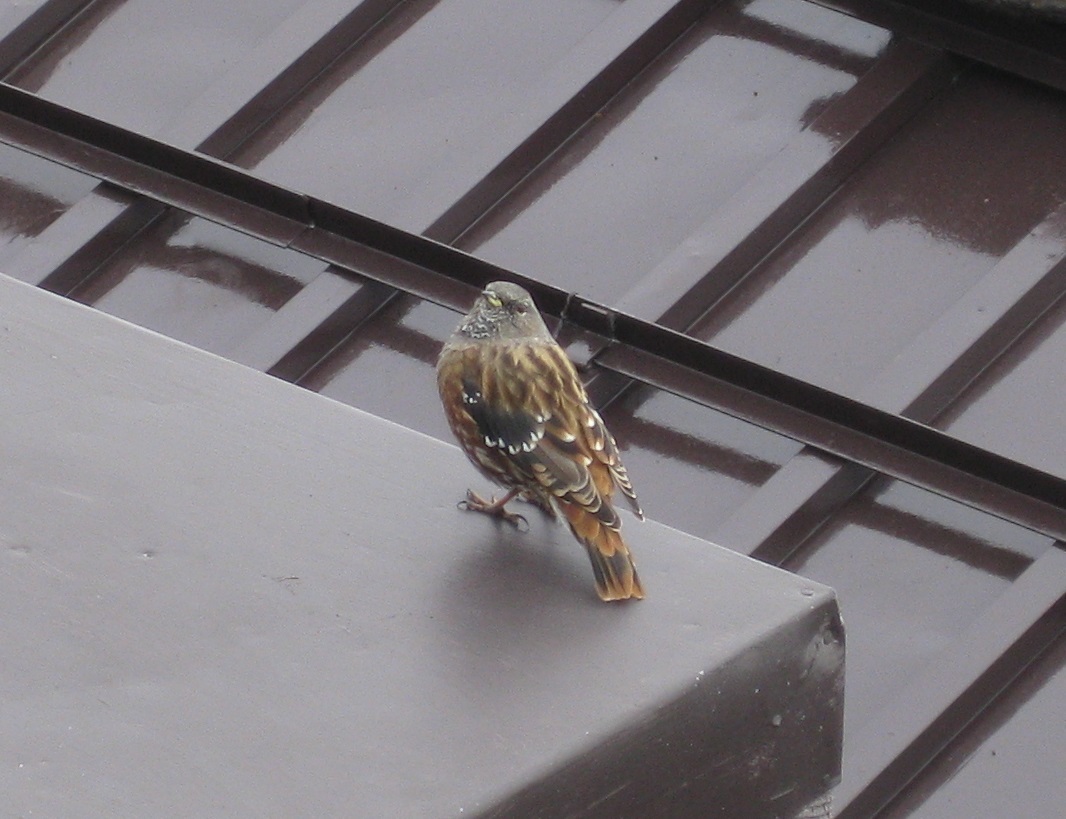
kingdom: Animalia
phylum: Chordata
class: Aves
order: Passeriformes
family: Prunellidae
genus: Prunella
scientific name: Prunella collaris
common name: Alpine accentor
